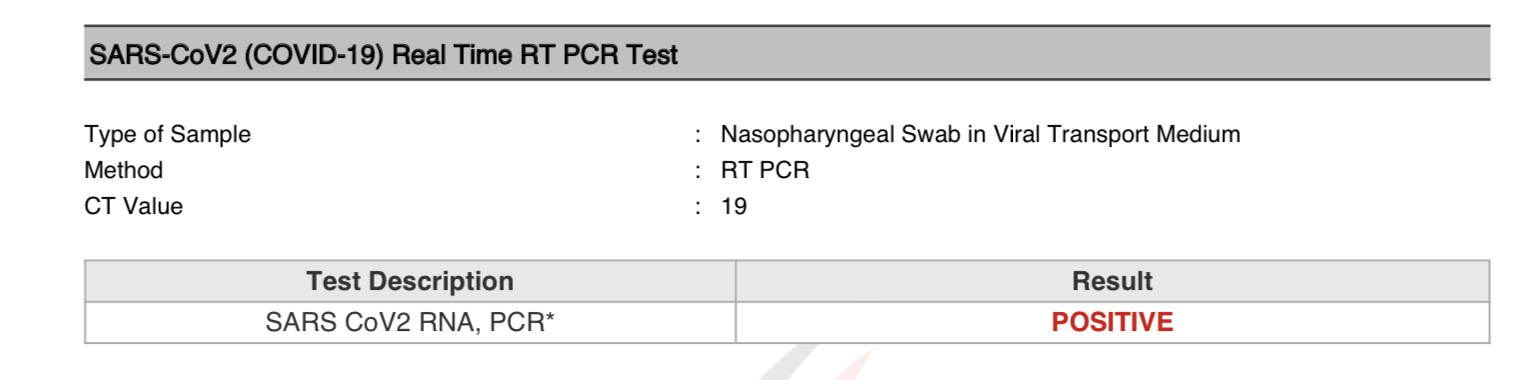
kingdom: Viruses
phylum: Pisuviricota
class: Pisoniviricetes
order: Nidovirales
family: Coronaviridae
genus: Betacoronavirus
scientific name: Betacoronavirus
